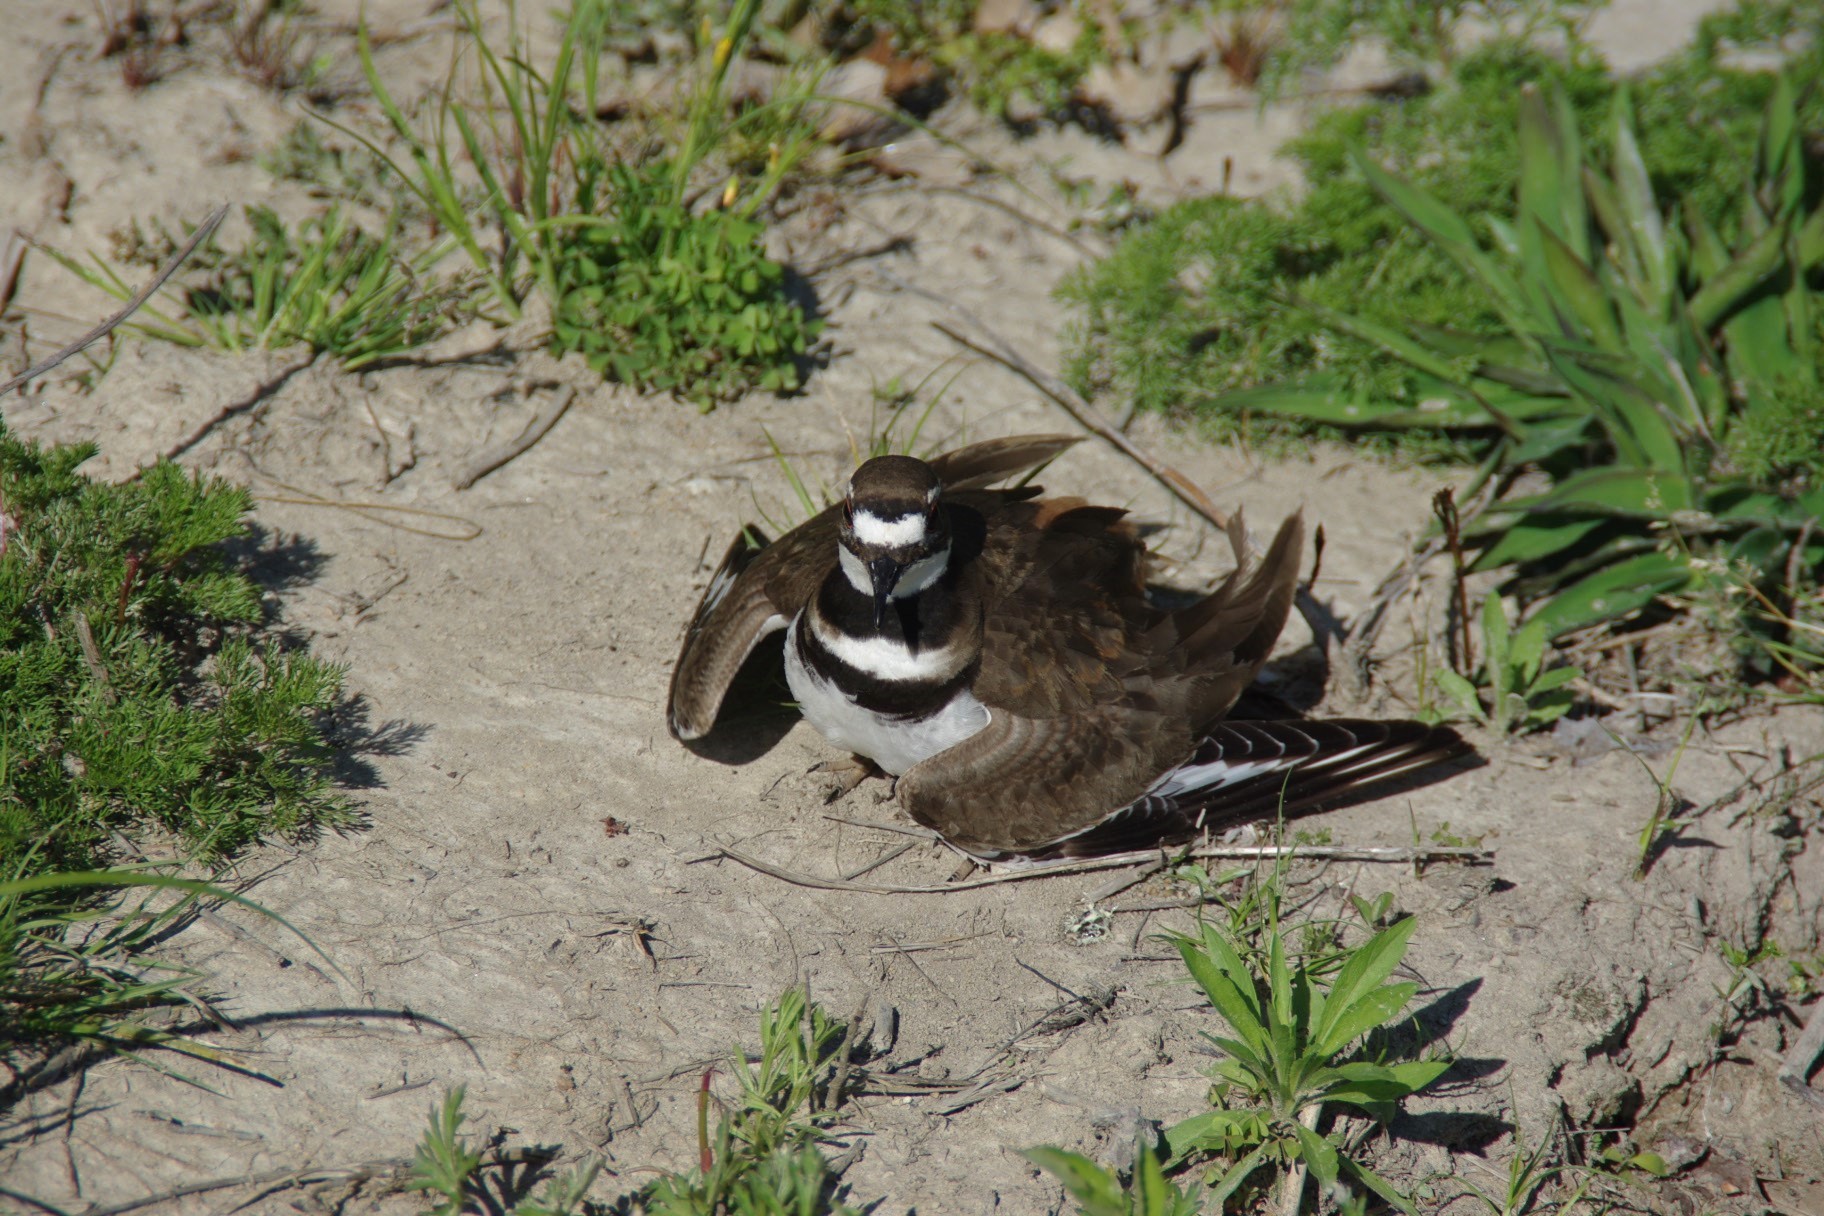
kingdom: Animalia
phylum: Chordata
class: Aves
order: Charadriiformes
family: Charadriidae
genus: Charadrius
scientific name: Charadrius vociferus
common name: Killdeer
